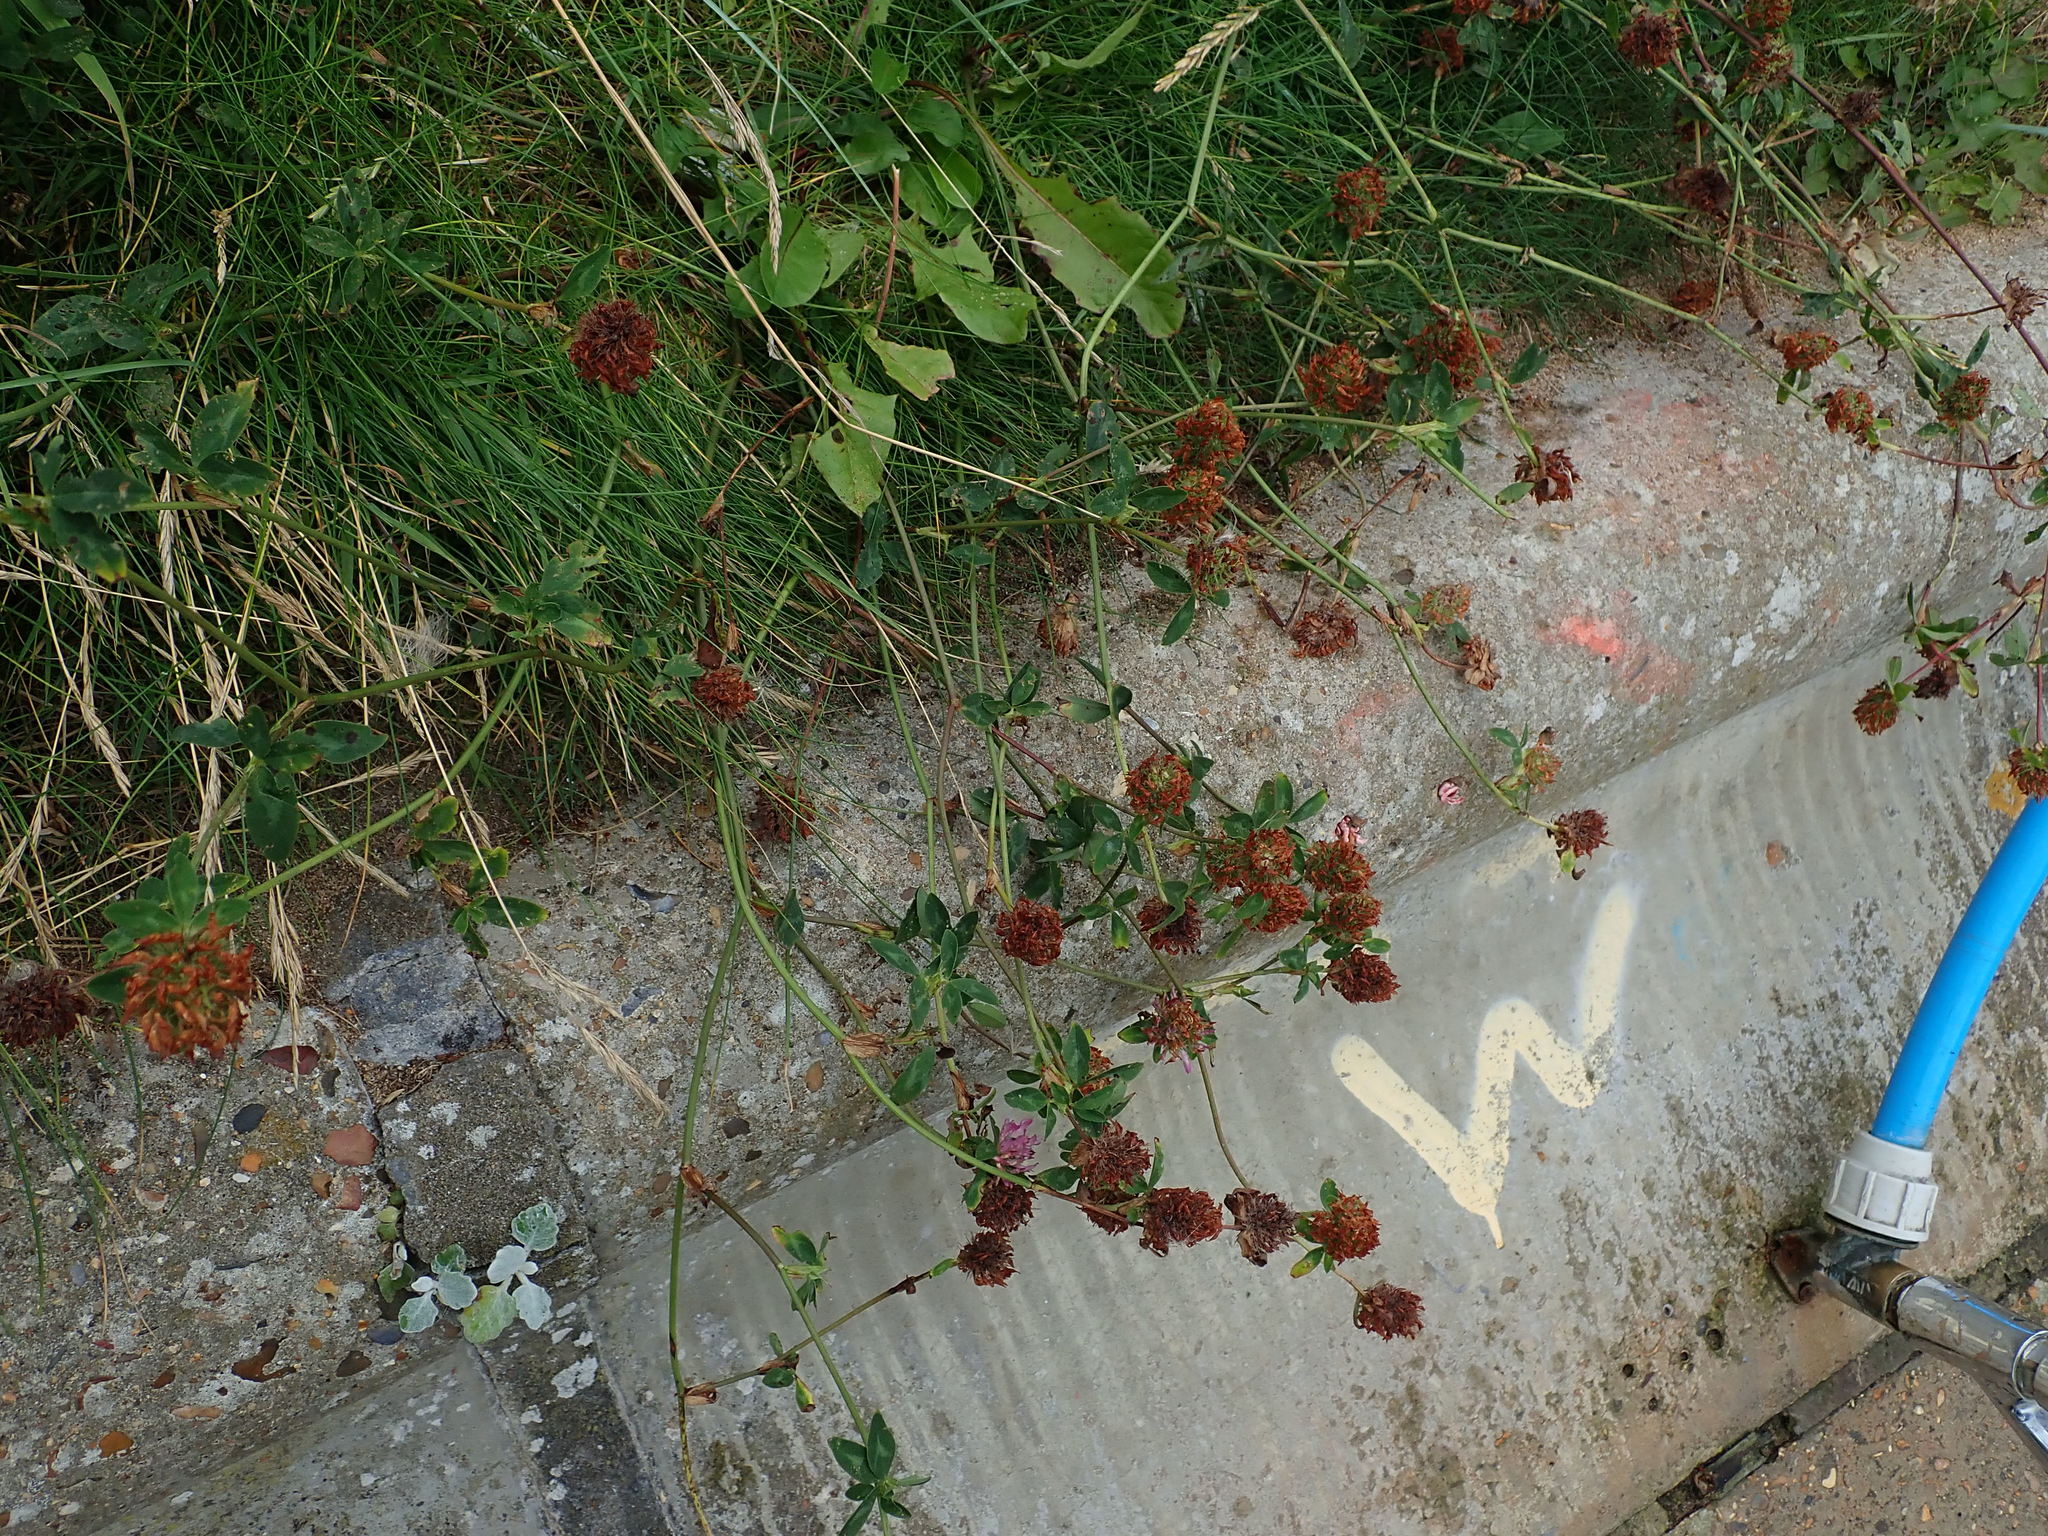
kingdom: Plantae
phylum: Tracheophyta
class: Magnoliopsida
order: Fabales
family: Fabaceae
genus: Trifolium
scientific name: Trifolium pratense
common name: Red clover
